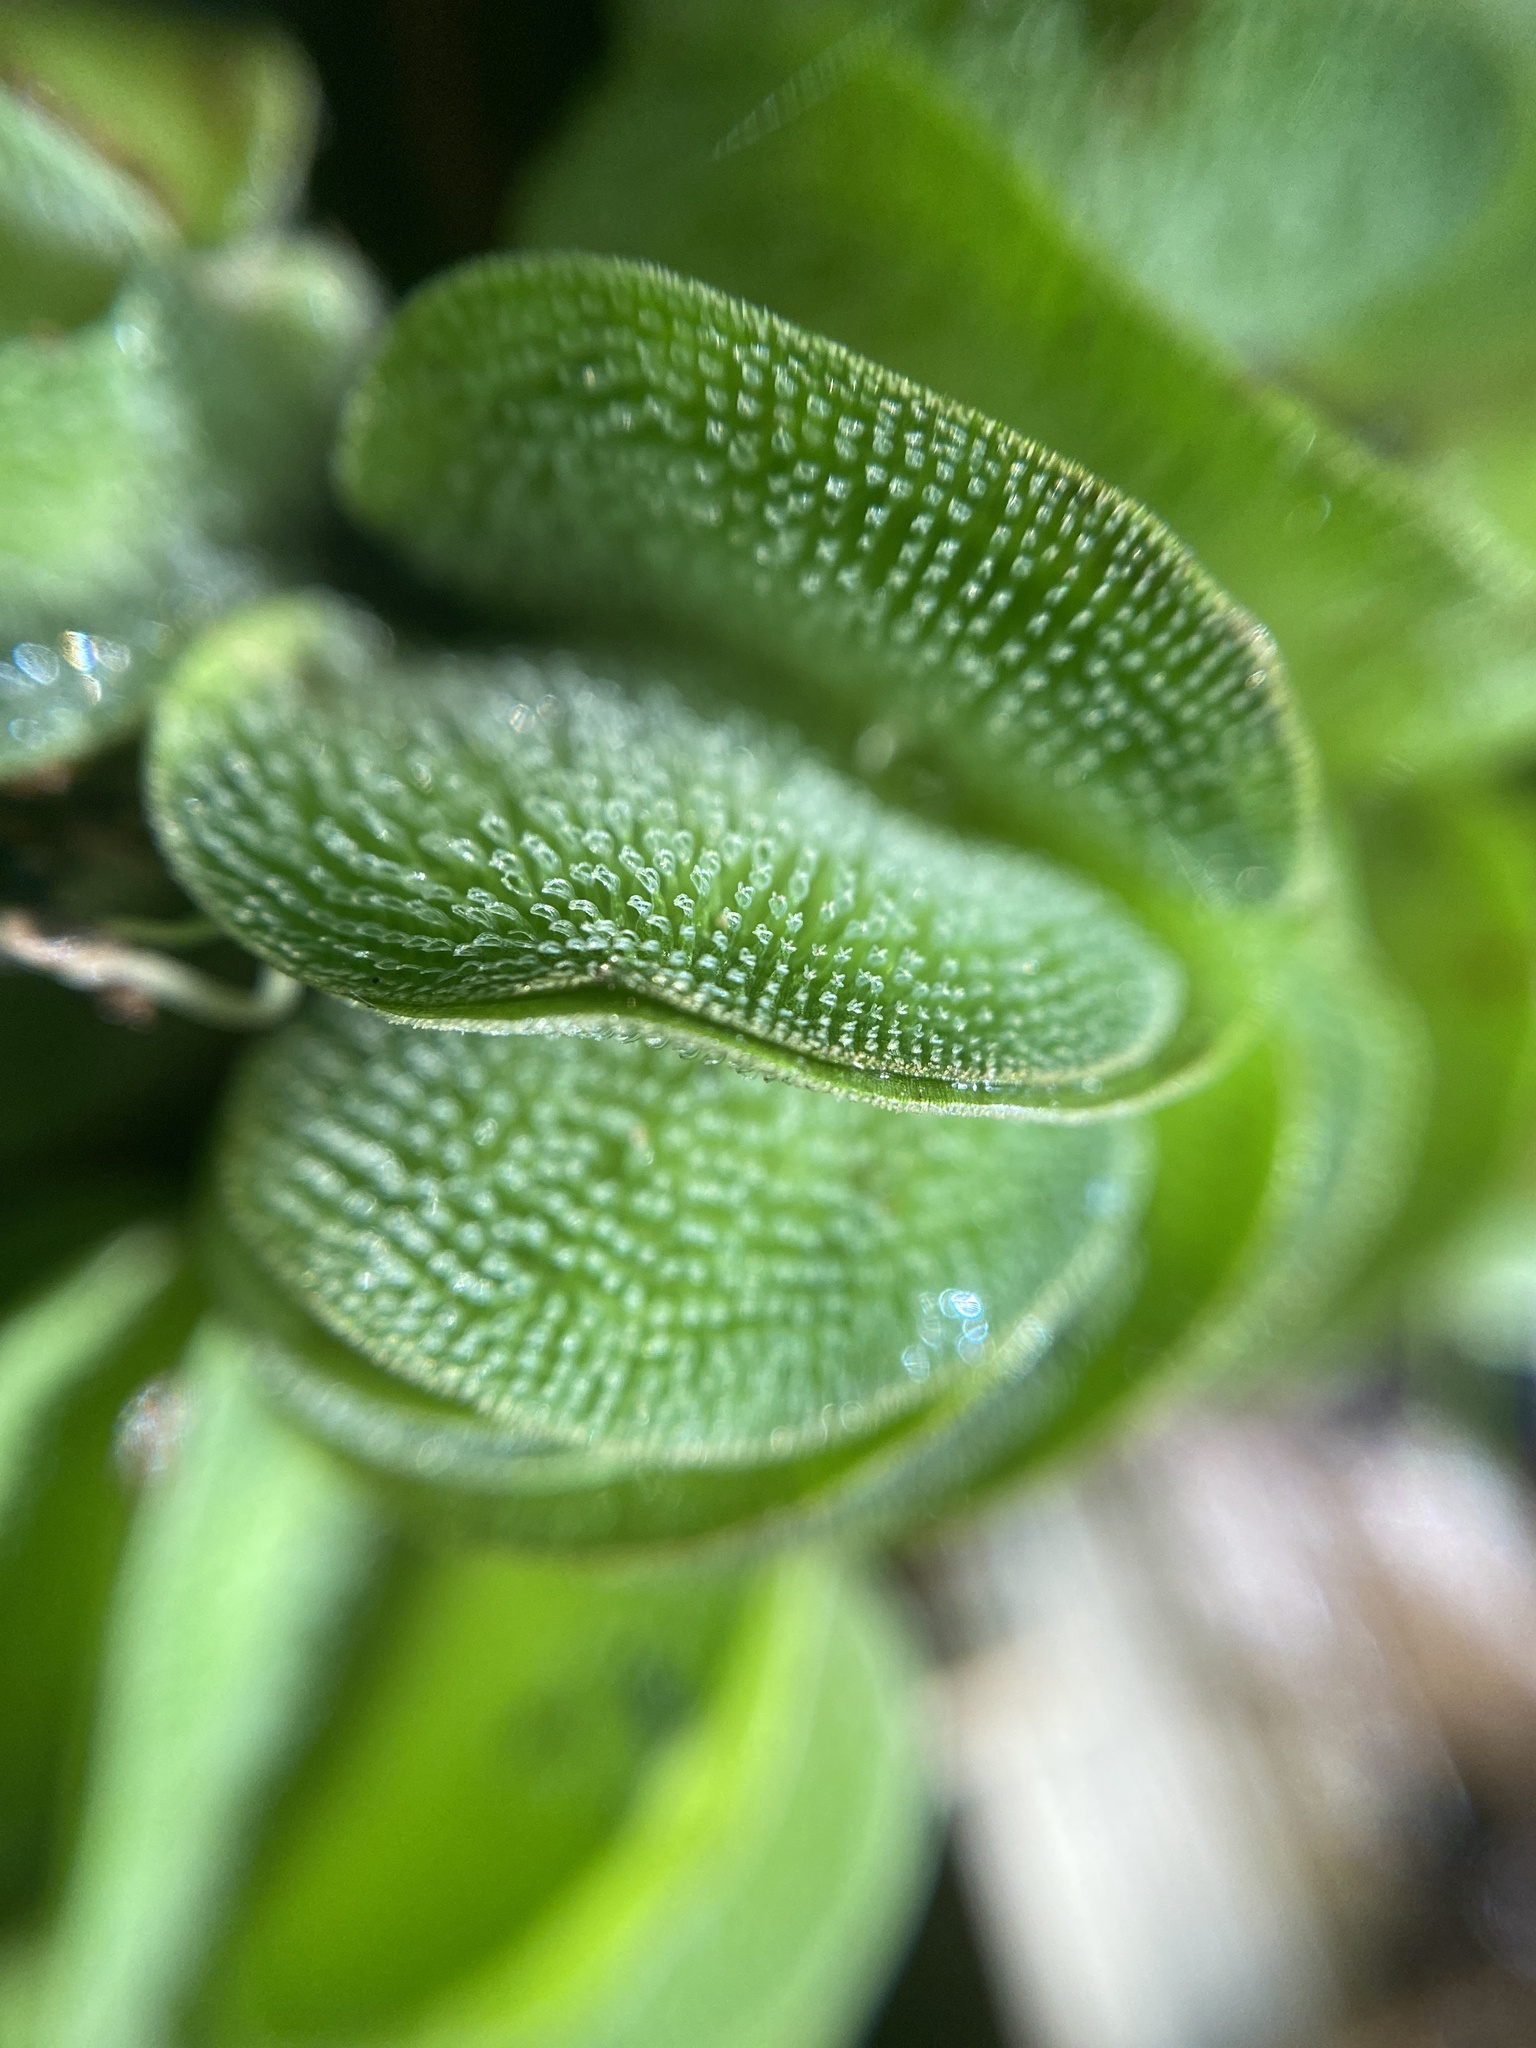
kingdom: Plantae
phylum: Tracheophyta
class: Polypodiopsida
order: Salviniales
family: Salviniaceae
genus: Salvinia
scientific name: Salvinia molesta
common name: Kariba weed
